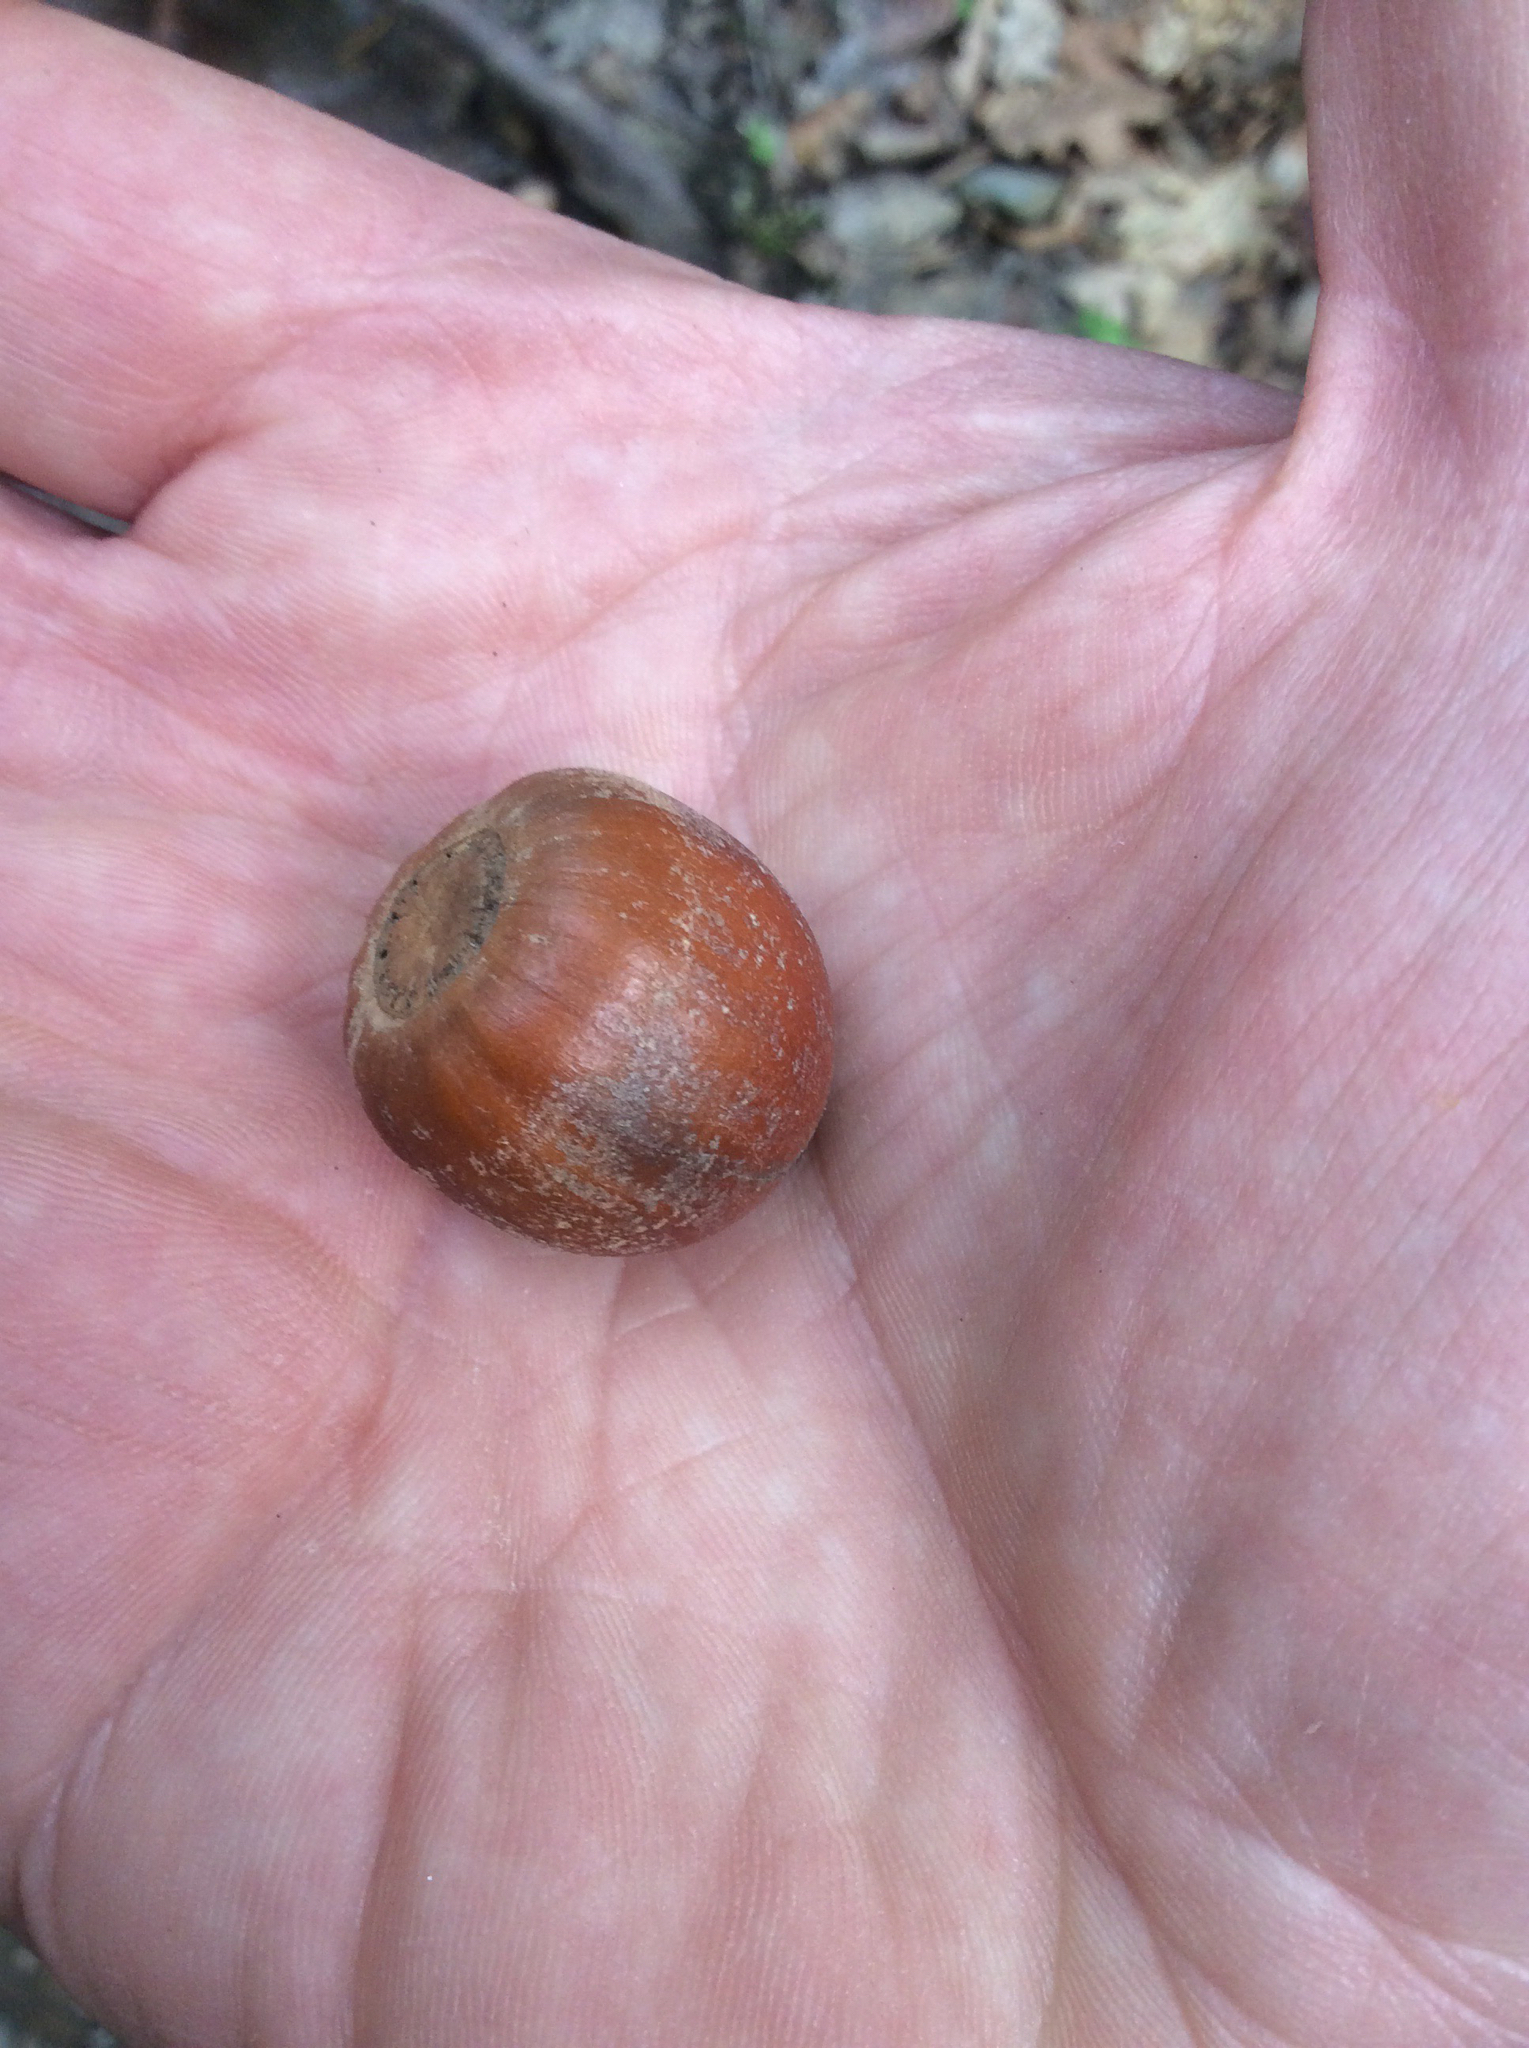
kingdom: Plantae
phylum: Tracheophyta
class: Magnoliopsida
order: Fagales
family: Fagaceae
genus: Quercus
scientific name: Quercus rubra
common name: Red oak
